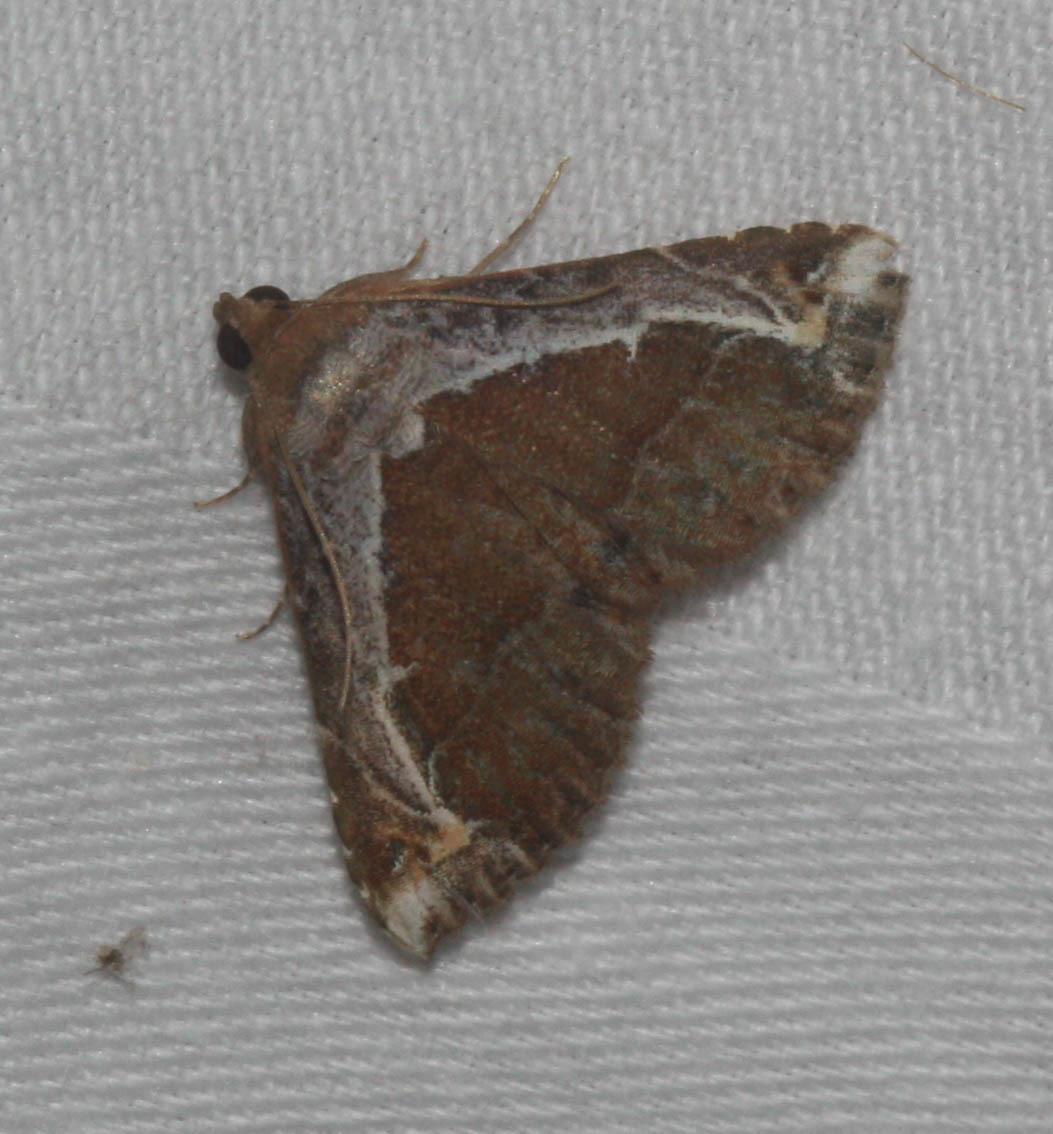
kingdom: Animalia
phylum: Arthropoda
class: Insecta
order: Lepidoptera
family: Erebidae
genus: Zurobata
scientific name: Zurobata vacillans
